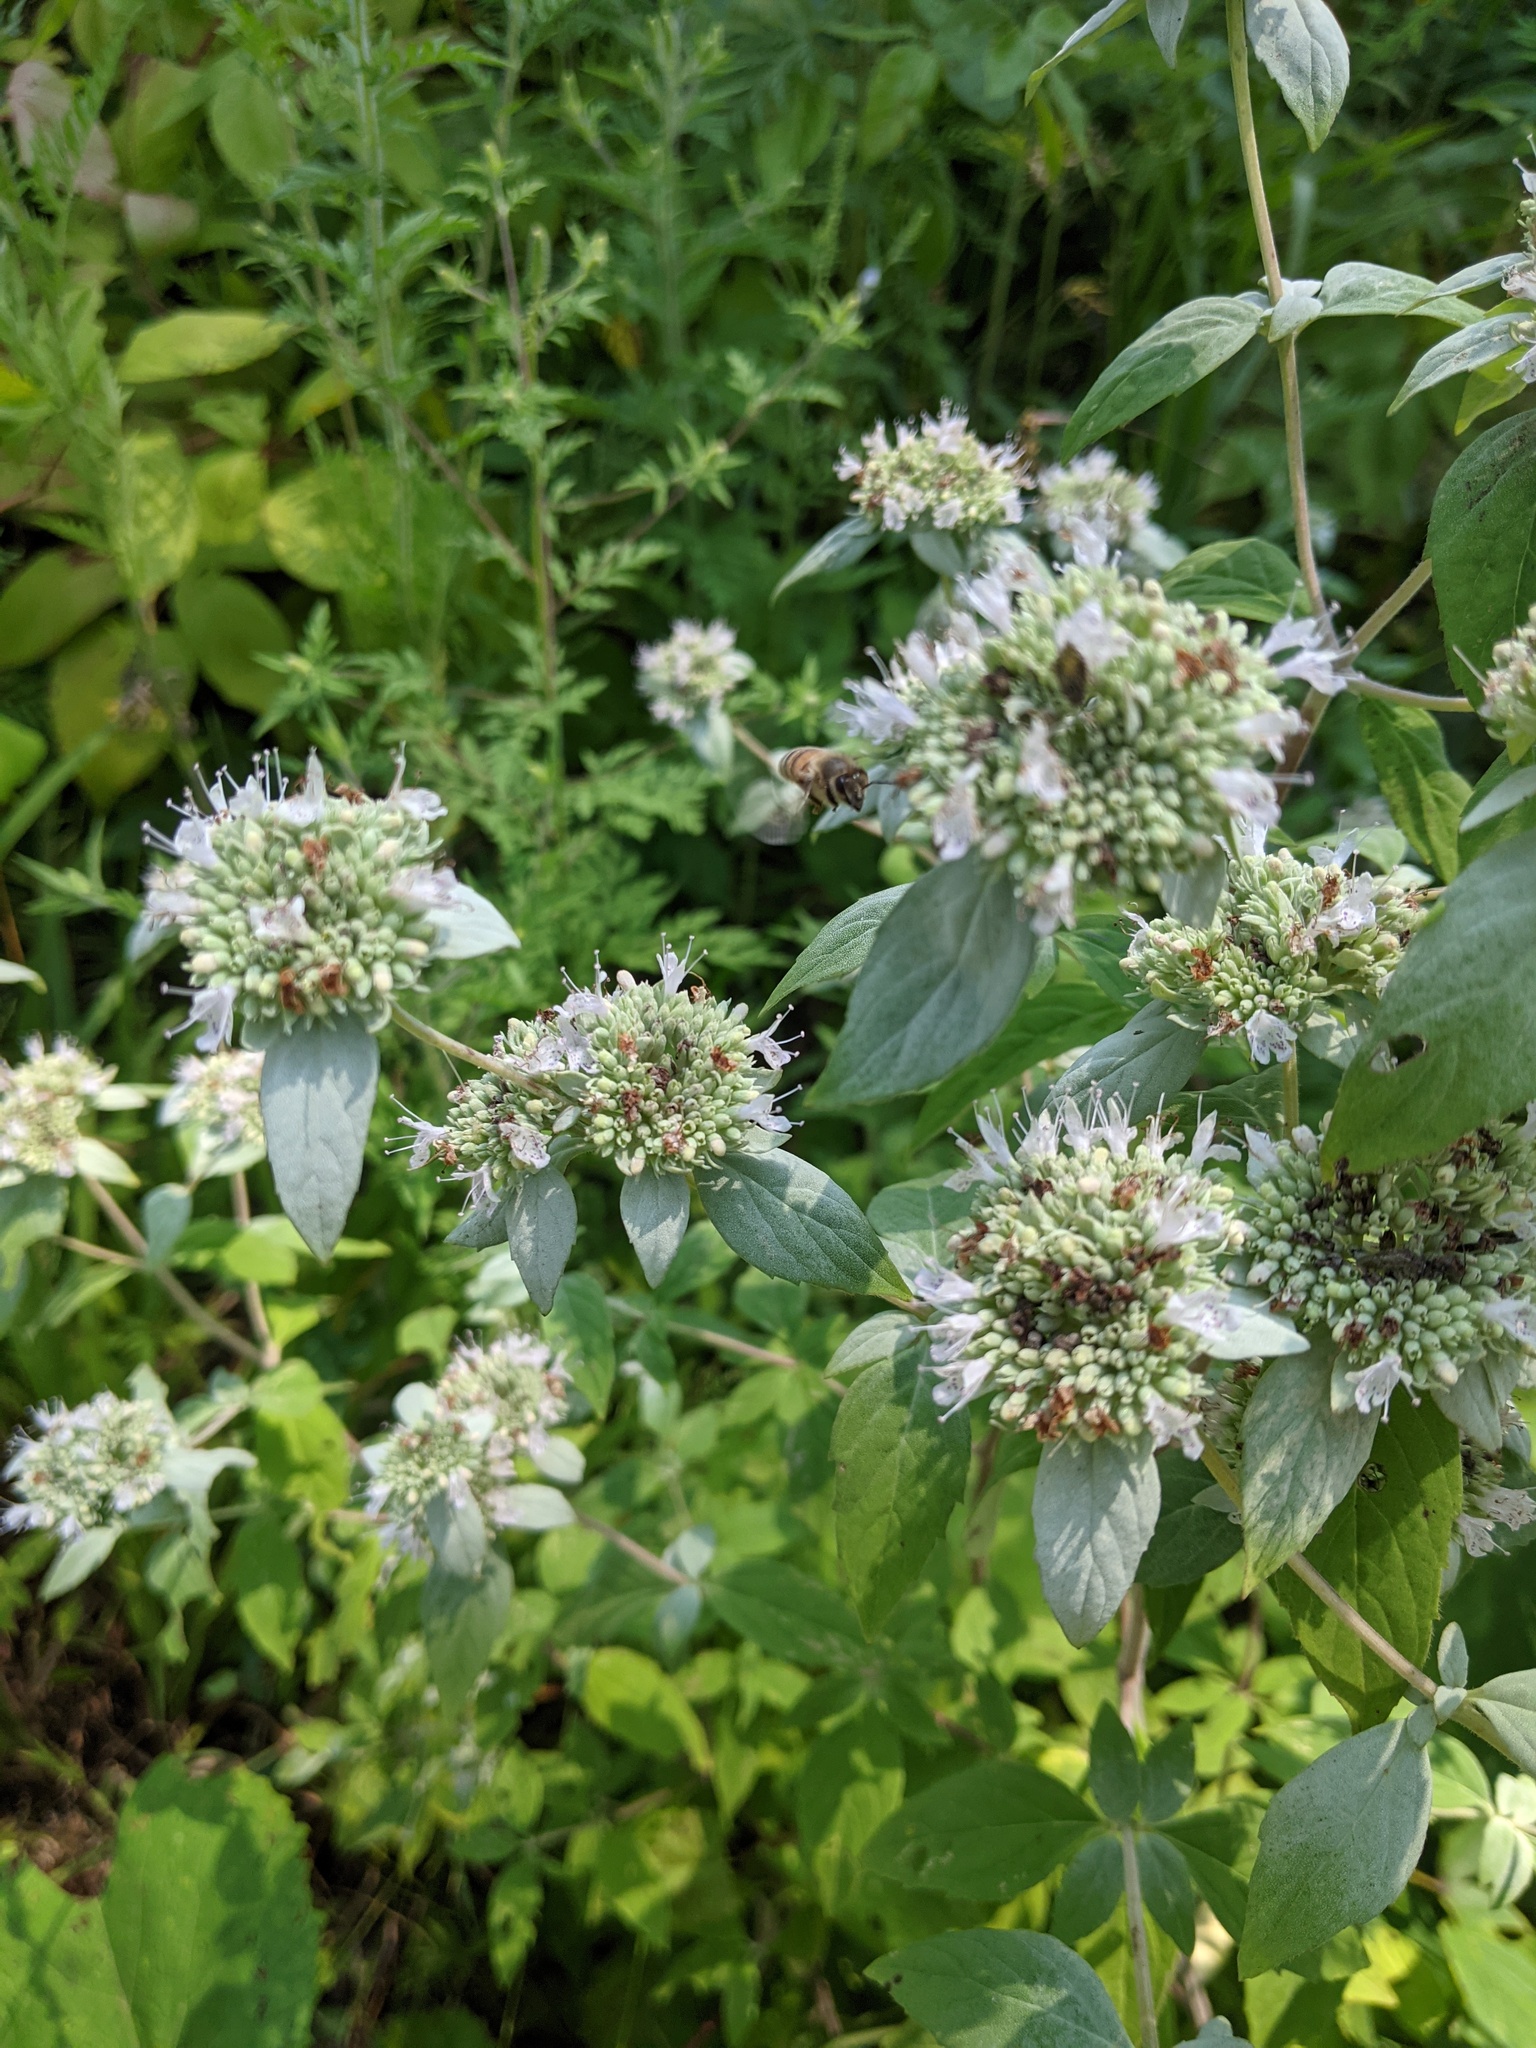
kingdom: Plantae
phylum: Tracheophyta
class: Magnoliopsida
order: Lamiales
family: Lamiaceae
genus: Pycnanthemum
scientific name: Pycnanthemum albescens
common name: White-leaf mountain-mint
